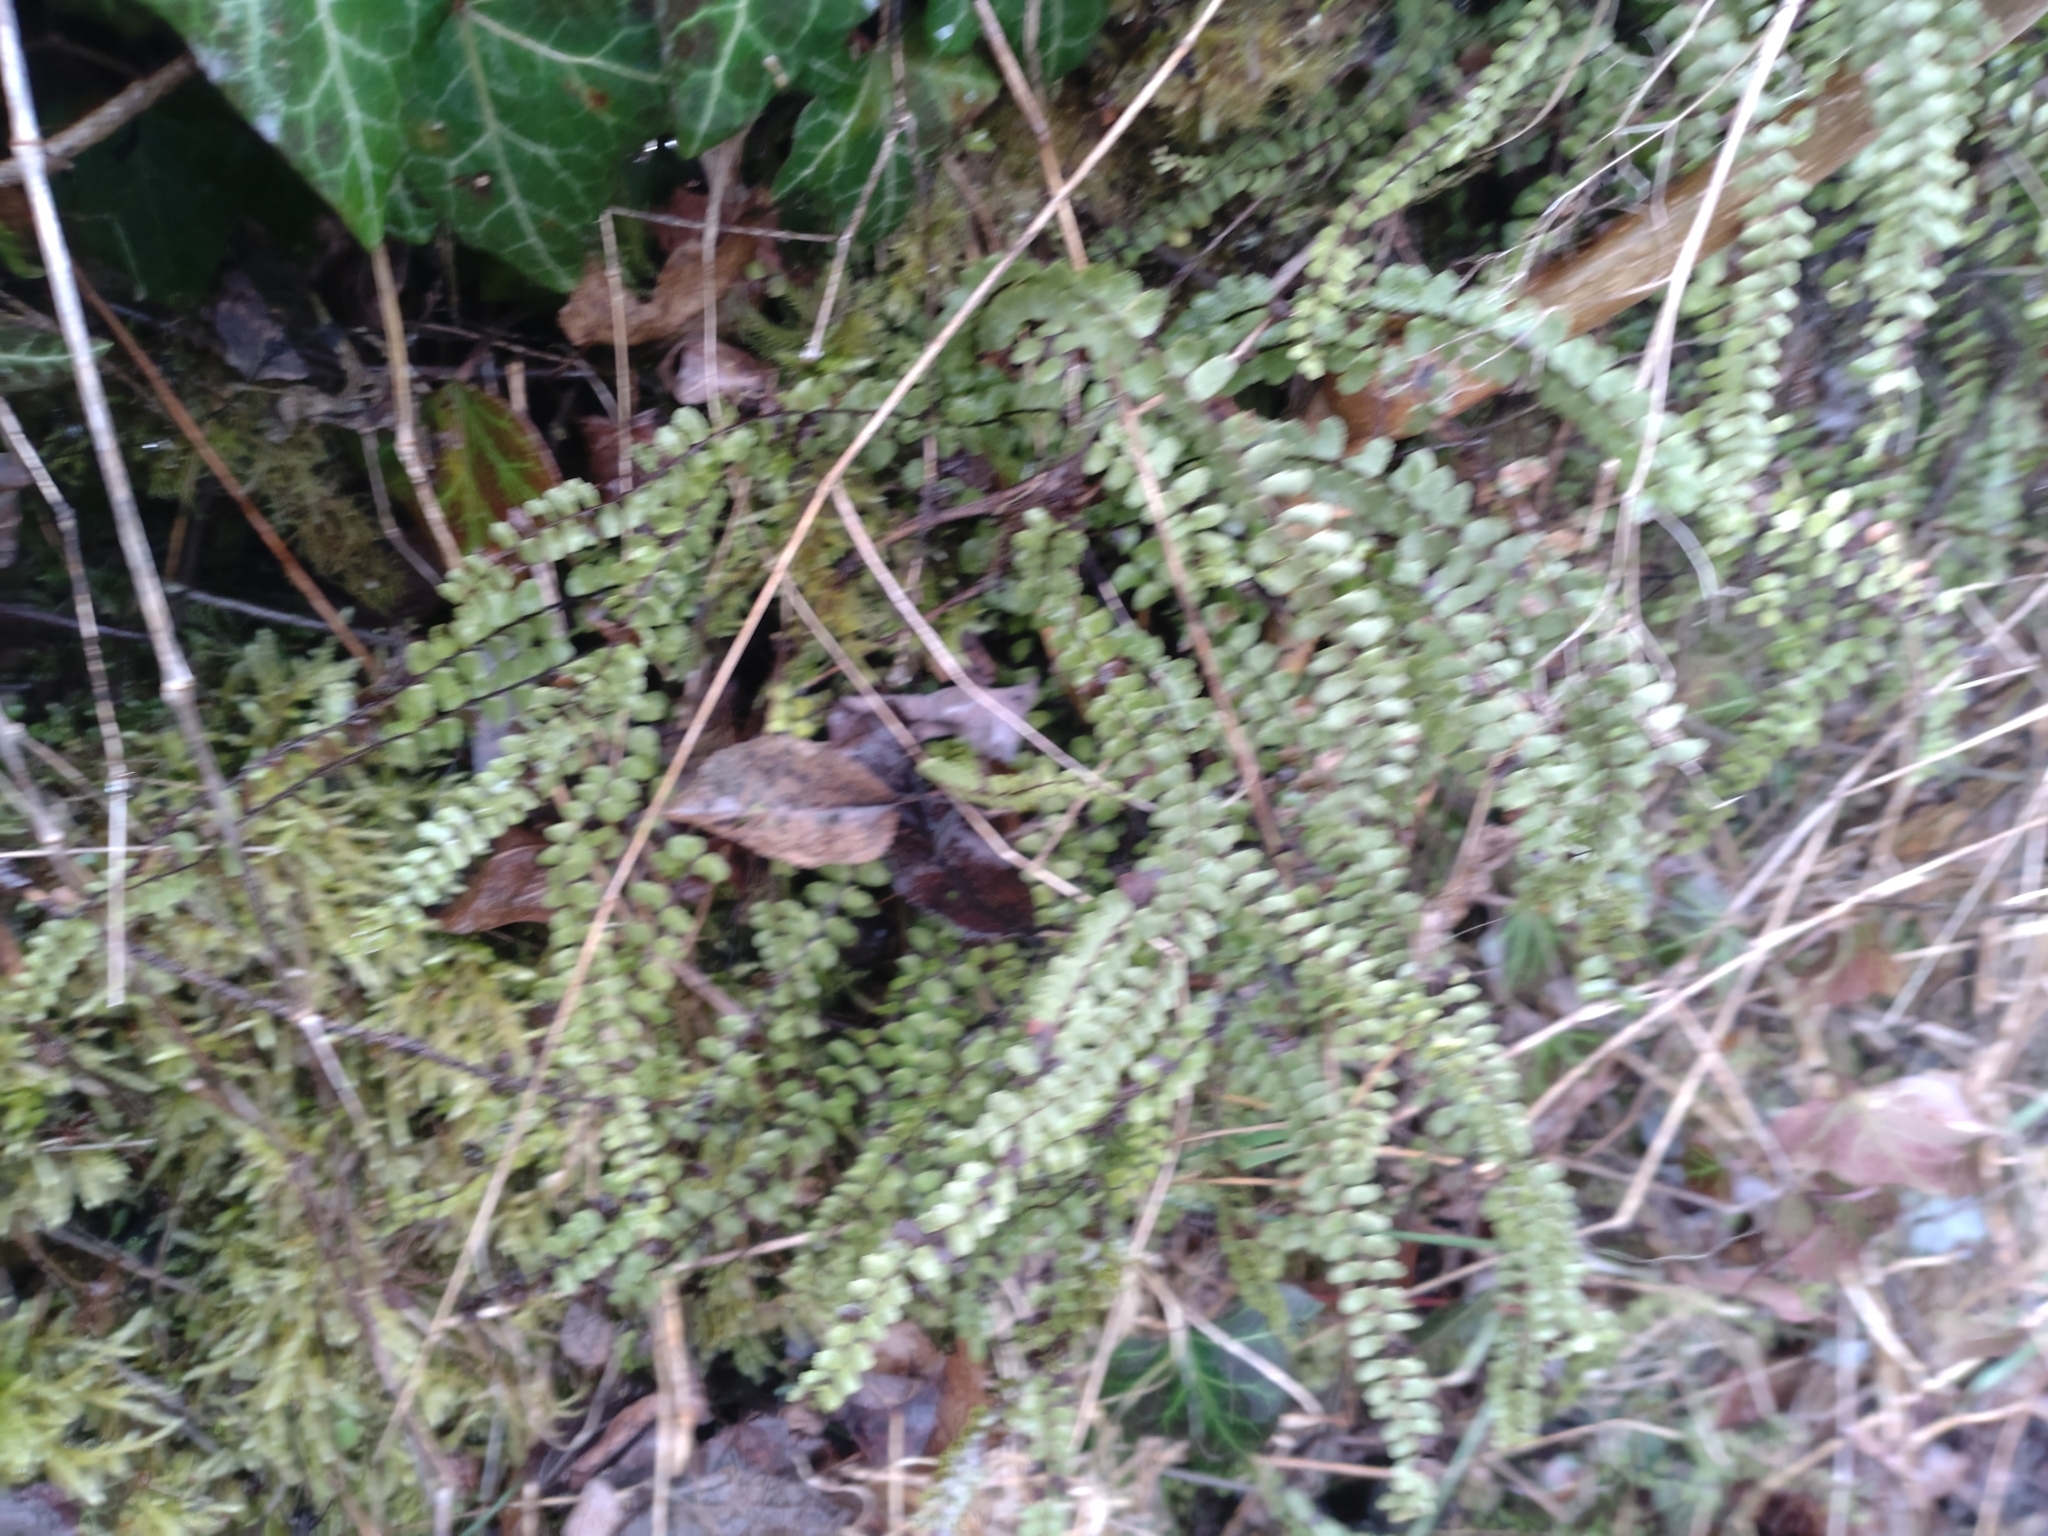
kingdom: Plantae
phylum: Tracheophyta
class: Polypodiopsida
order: Polypodiales
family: Aspleniaceae
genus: Asplenium
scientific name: Asplenium trichomanes
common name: Maidenhair spleenwort
